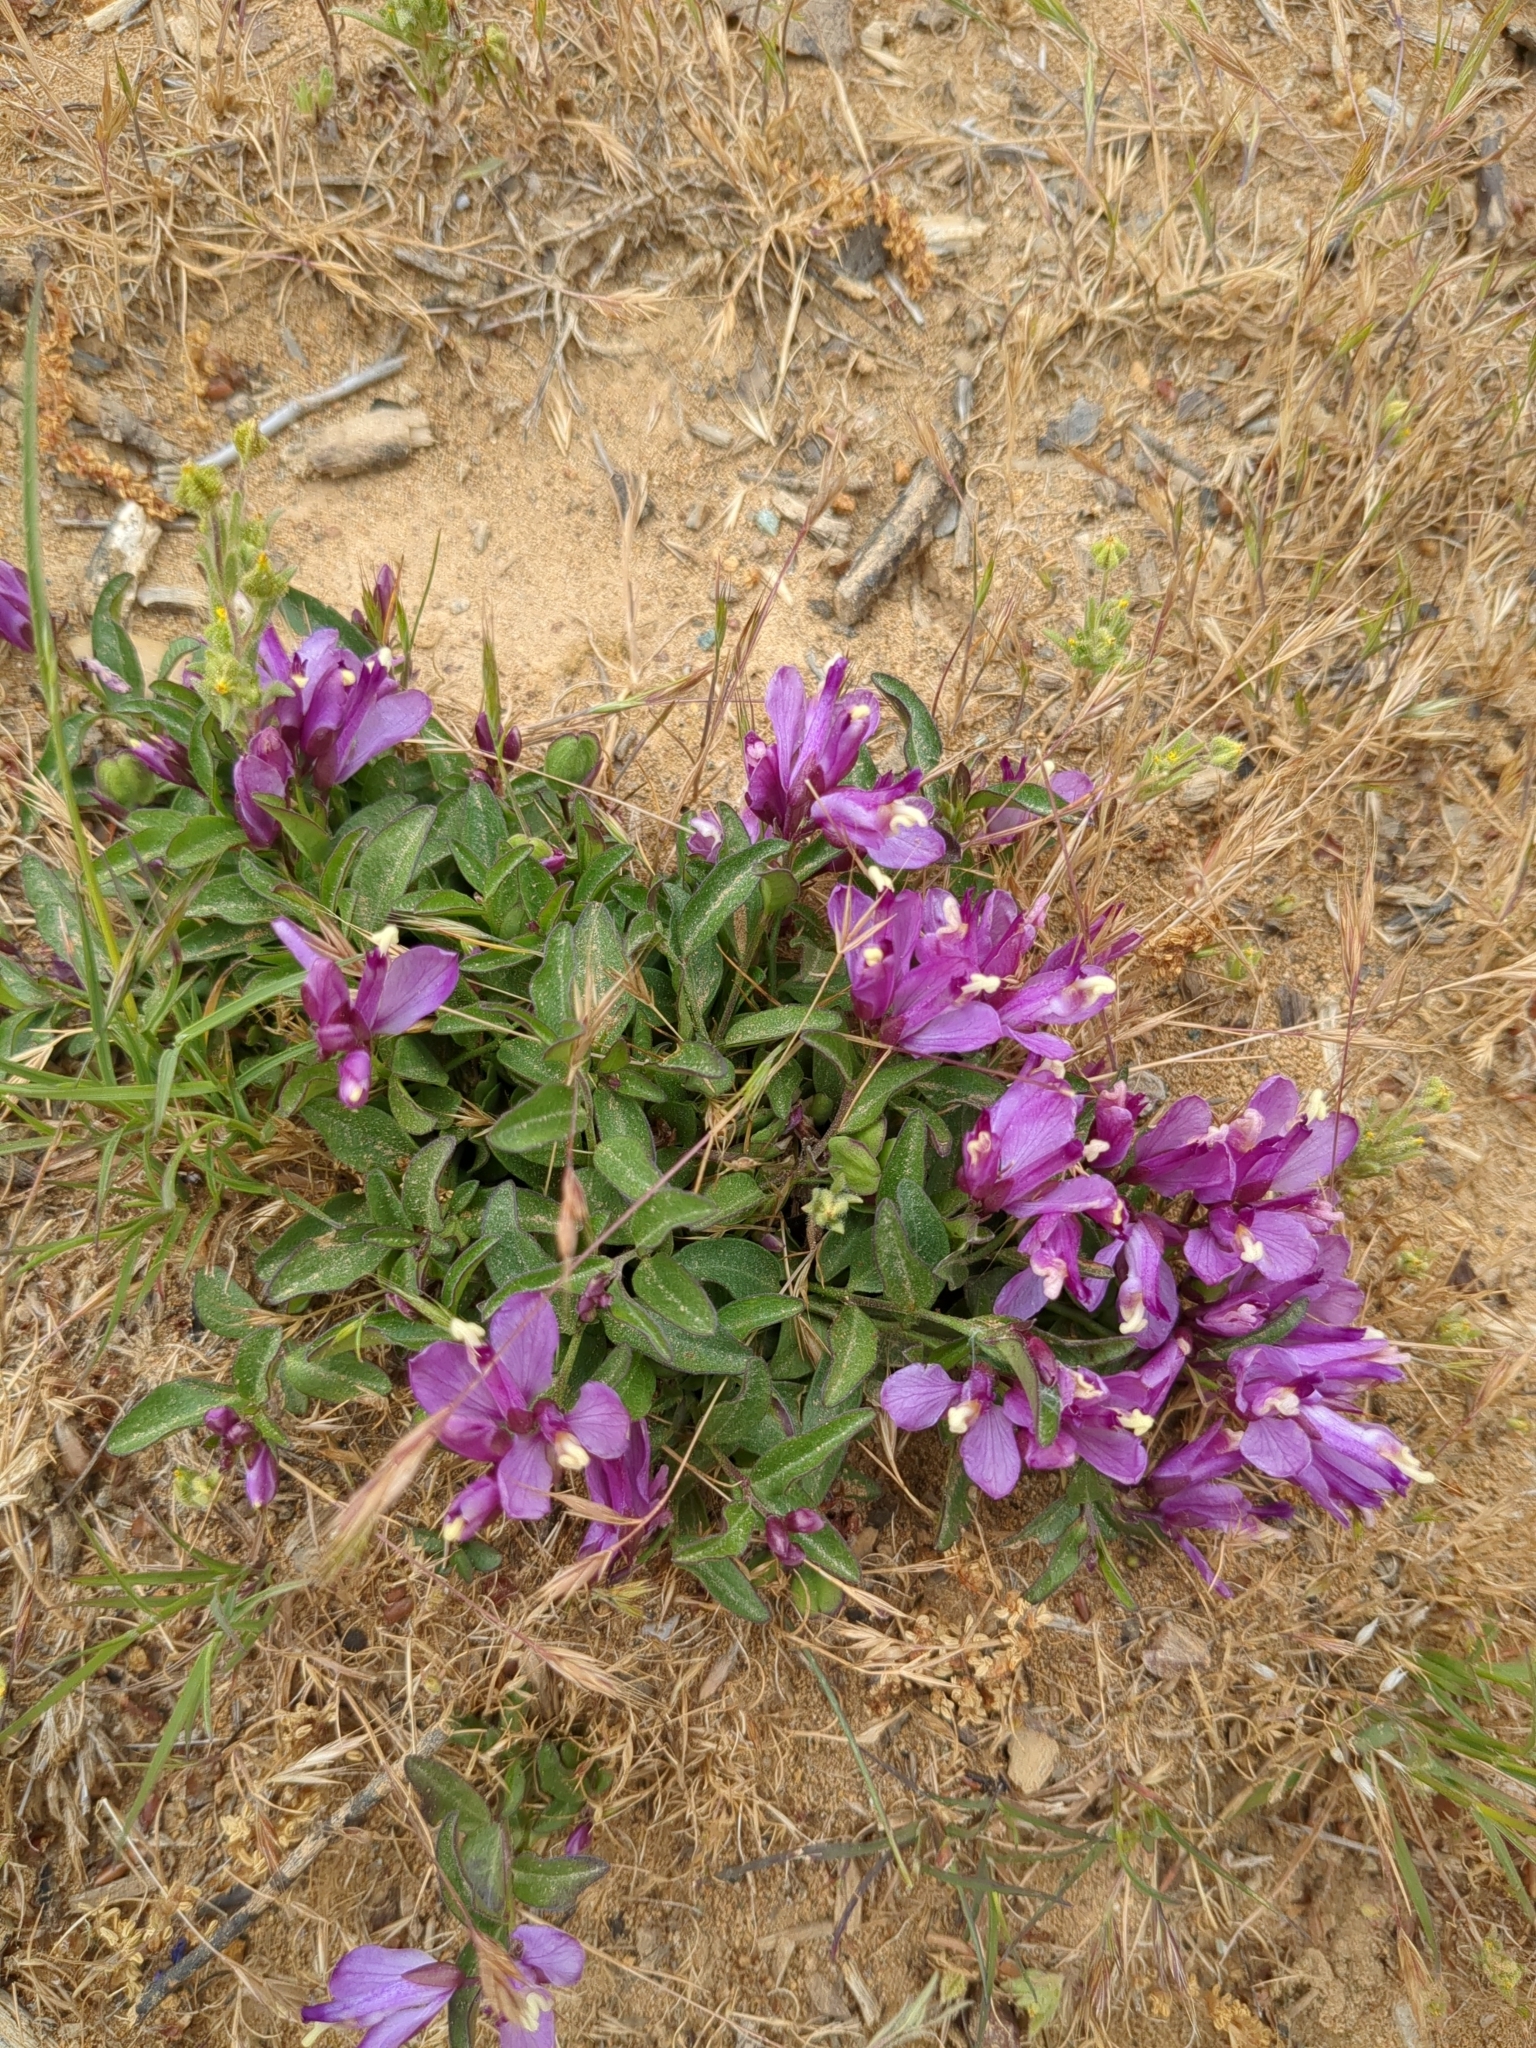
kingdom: Plantae
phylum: Tracheophyta
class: Magnoliopsida
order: Fabales
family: Polygalaceae
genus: Rhinotropis
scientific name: Rhinotropis californica
